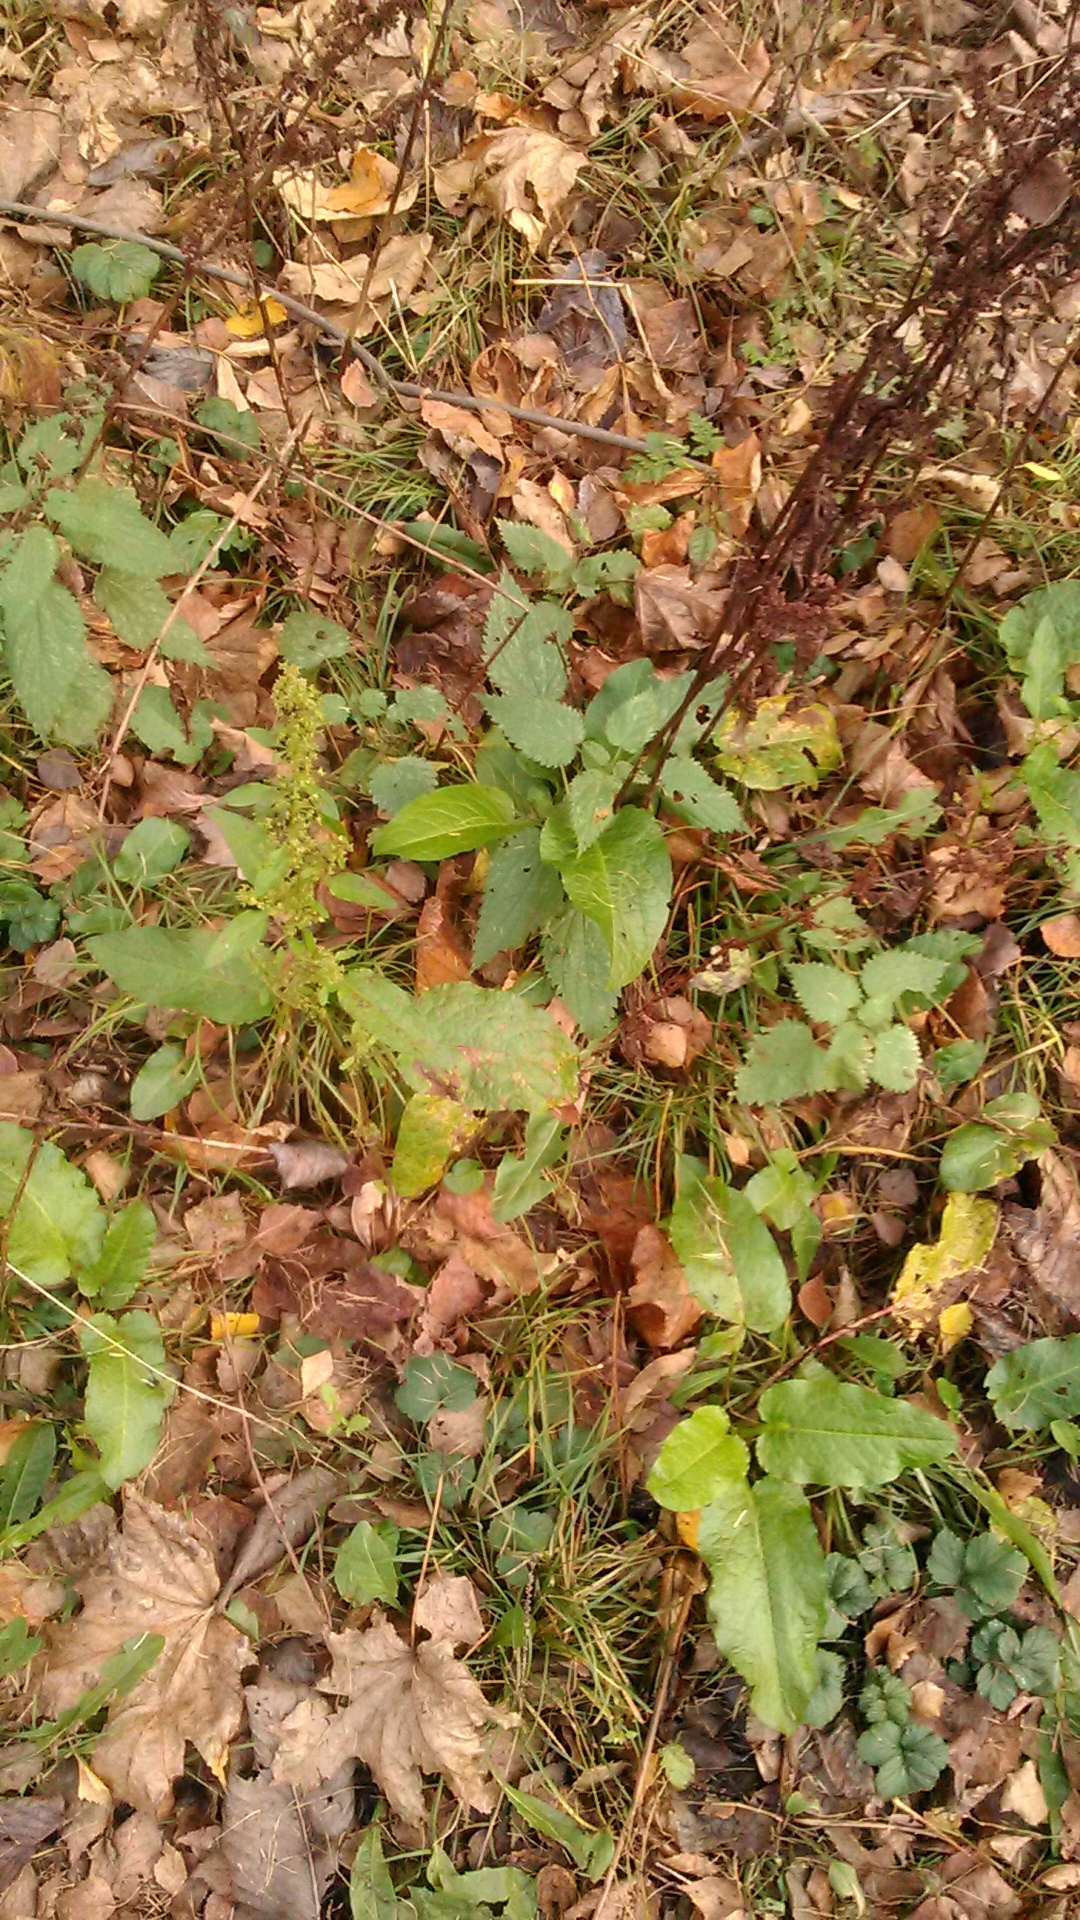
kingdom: Plantae
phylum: Tracheophyta
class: Magnoliopsida
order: Caryophyllales
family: Polygonaceae
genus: Rumex
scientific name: Rumex obtusifolius
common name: Bitter dock
